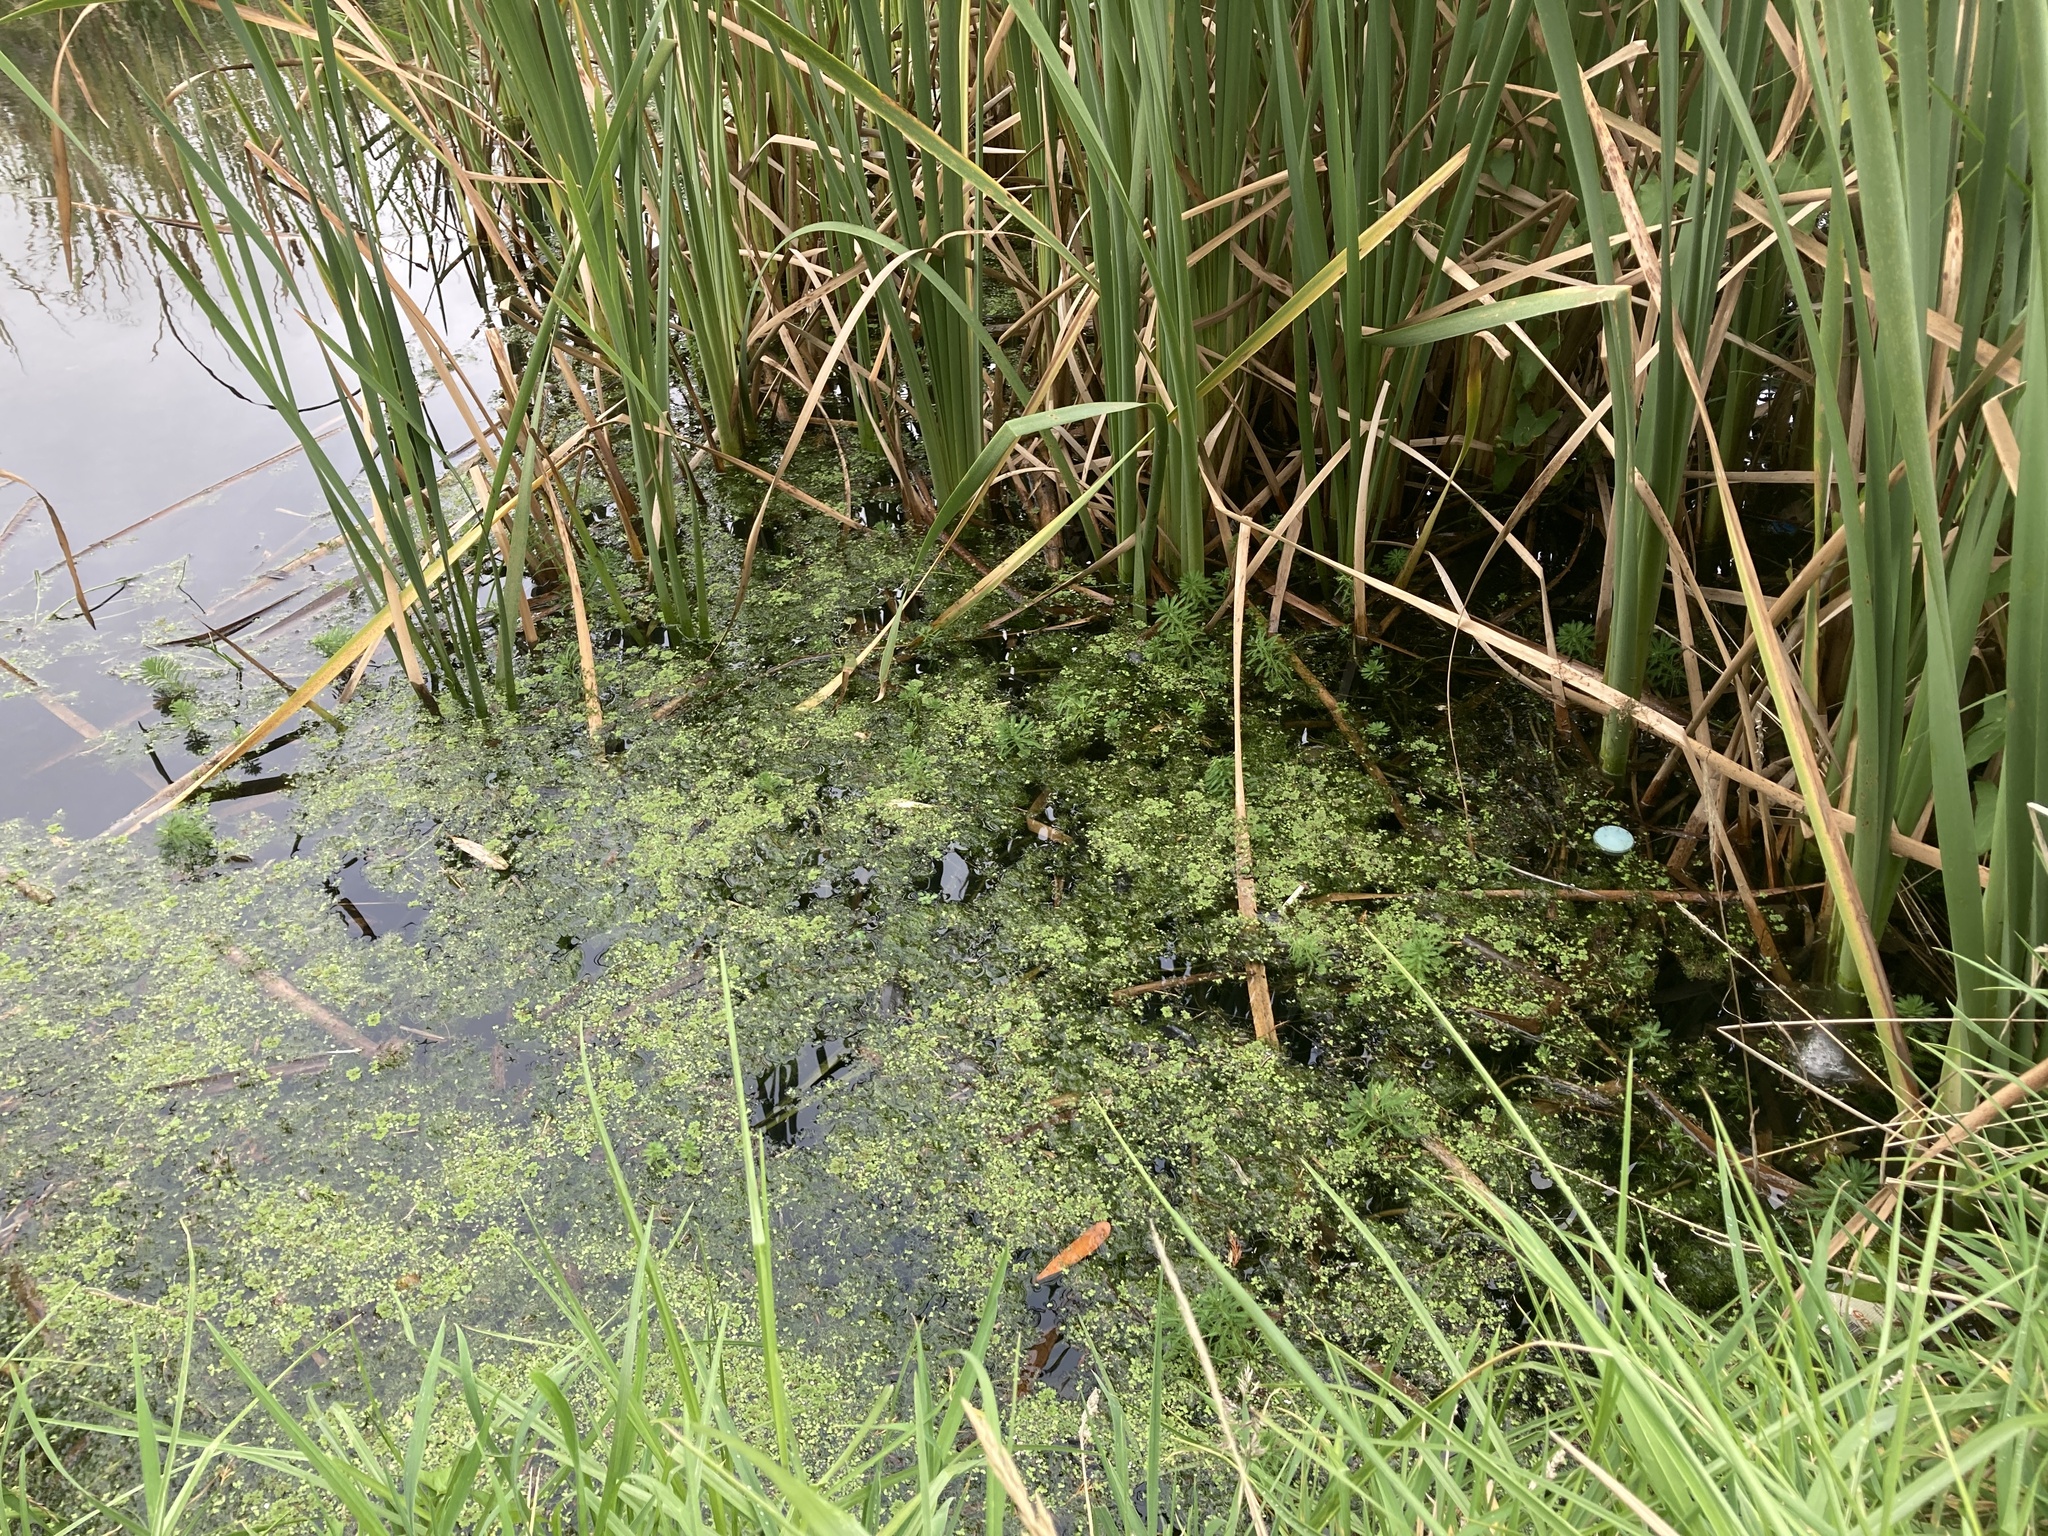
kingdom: Plantae
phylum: Tracheophyta
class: Magnoliopsida
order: Saxifragales
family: Haloragaceae
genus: Myriophyllum
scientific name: Myriophyllum aquaticum
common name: Parrot's feather
